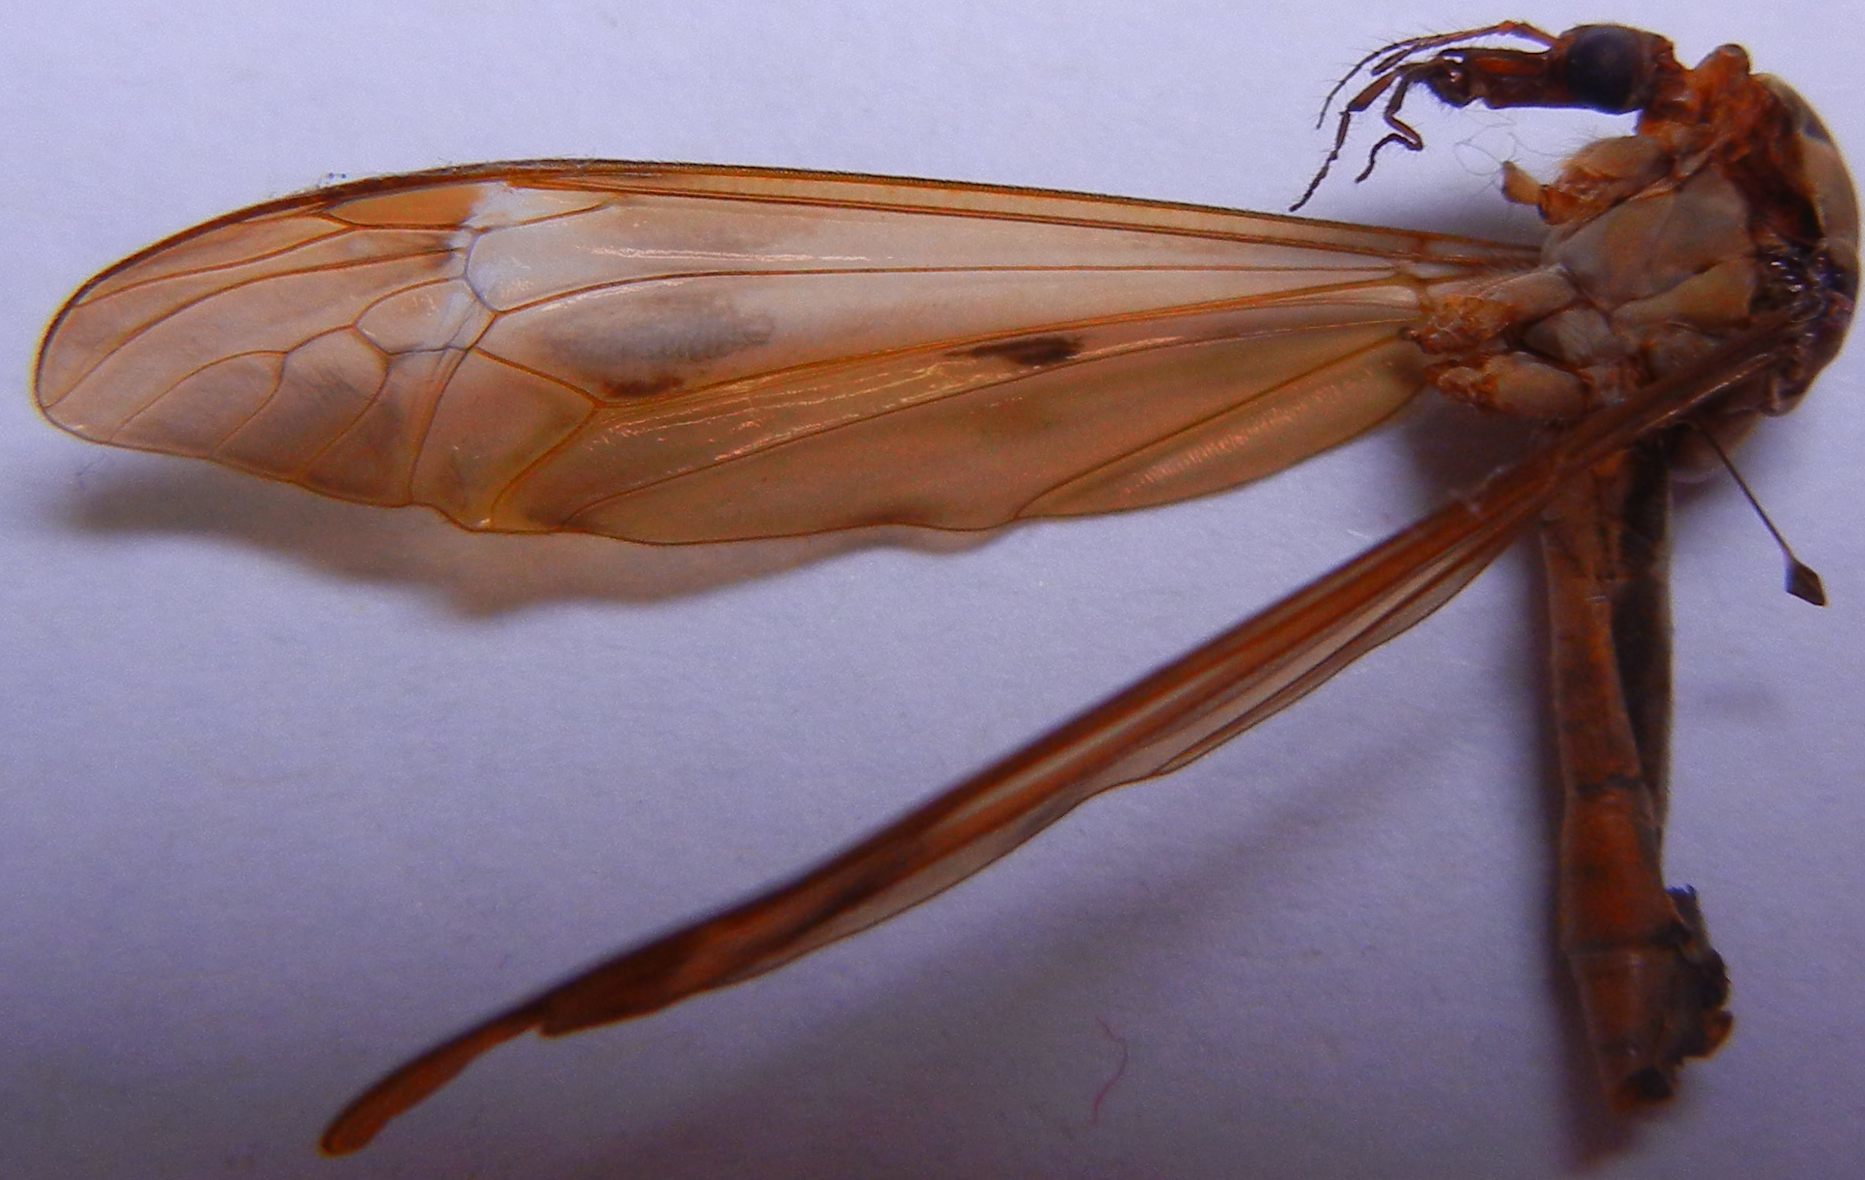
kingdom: Animalia
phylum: Arthropoda
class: Insecta
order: Diptera
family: Tipulidae
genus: Tipula
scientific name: Tipula fulvipennis
